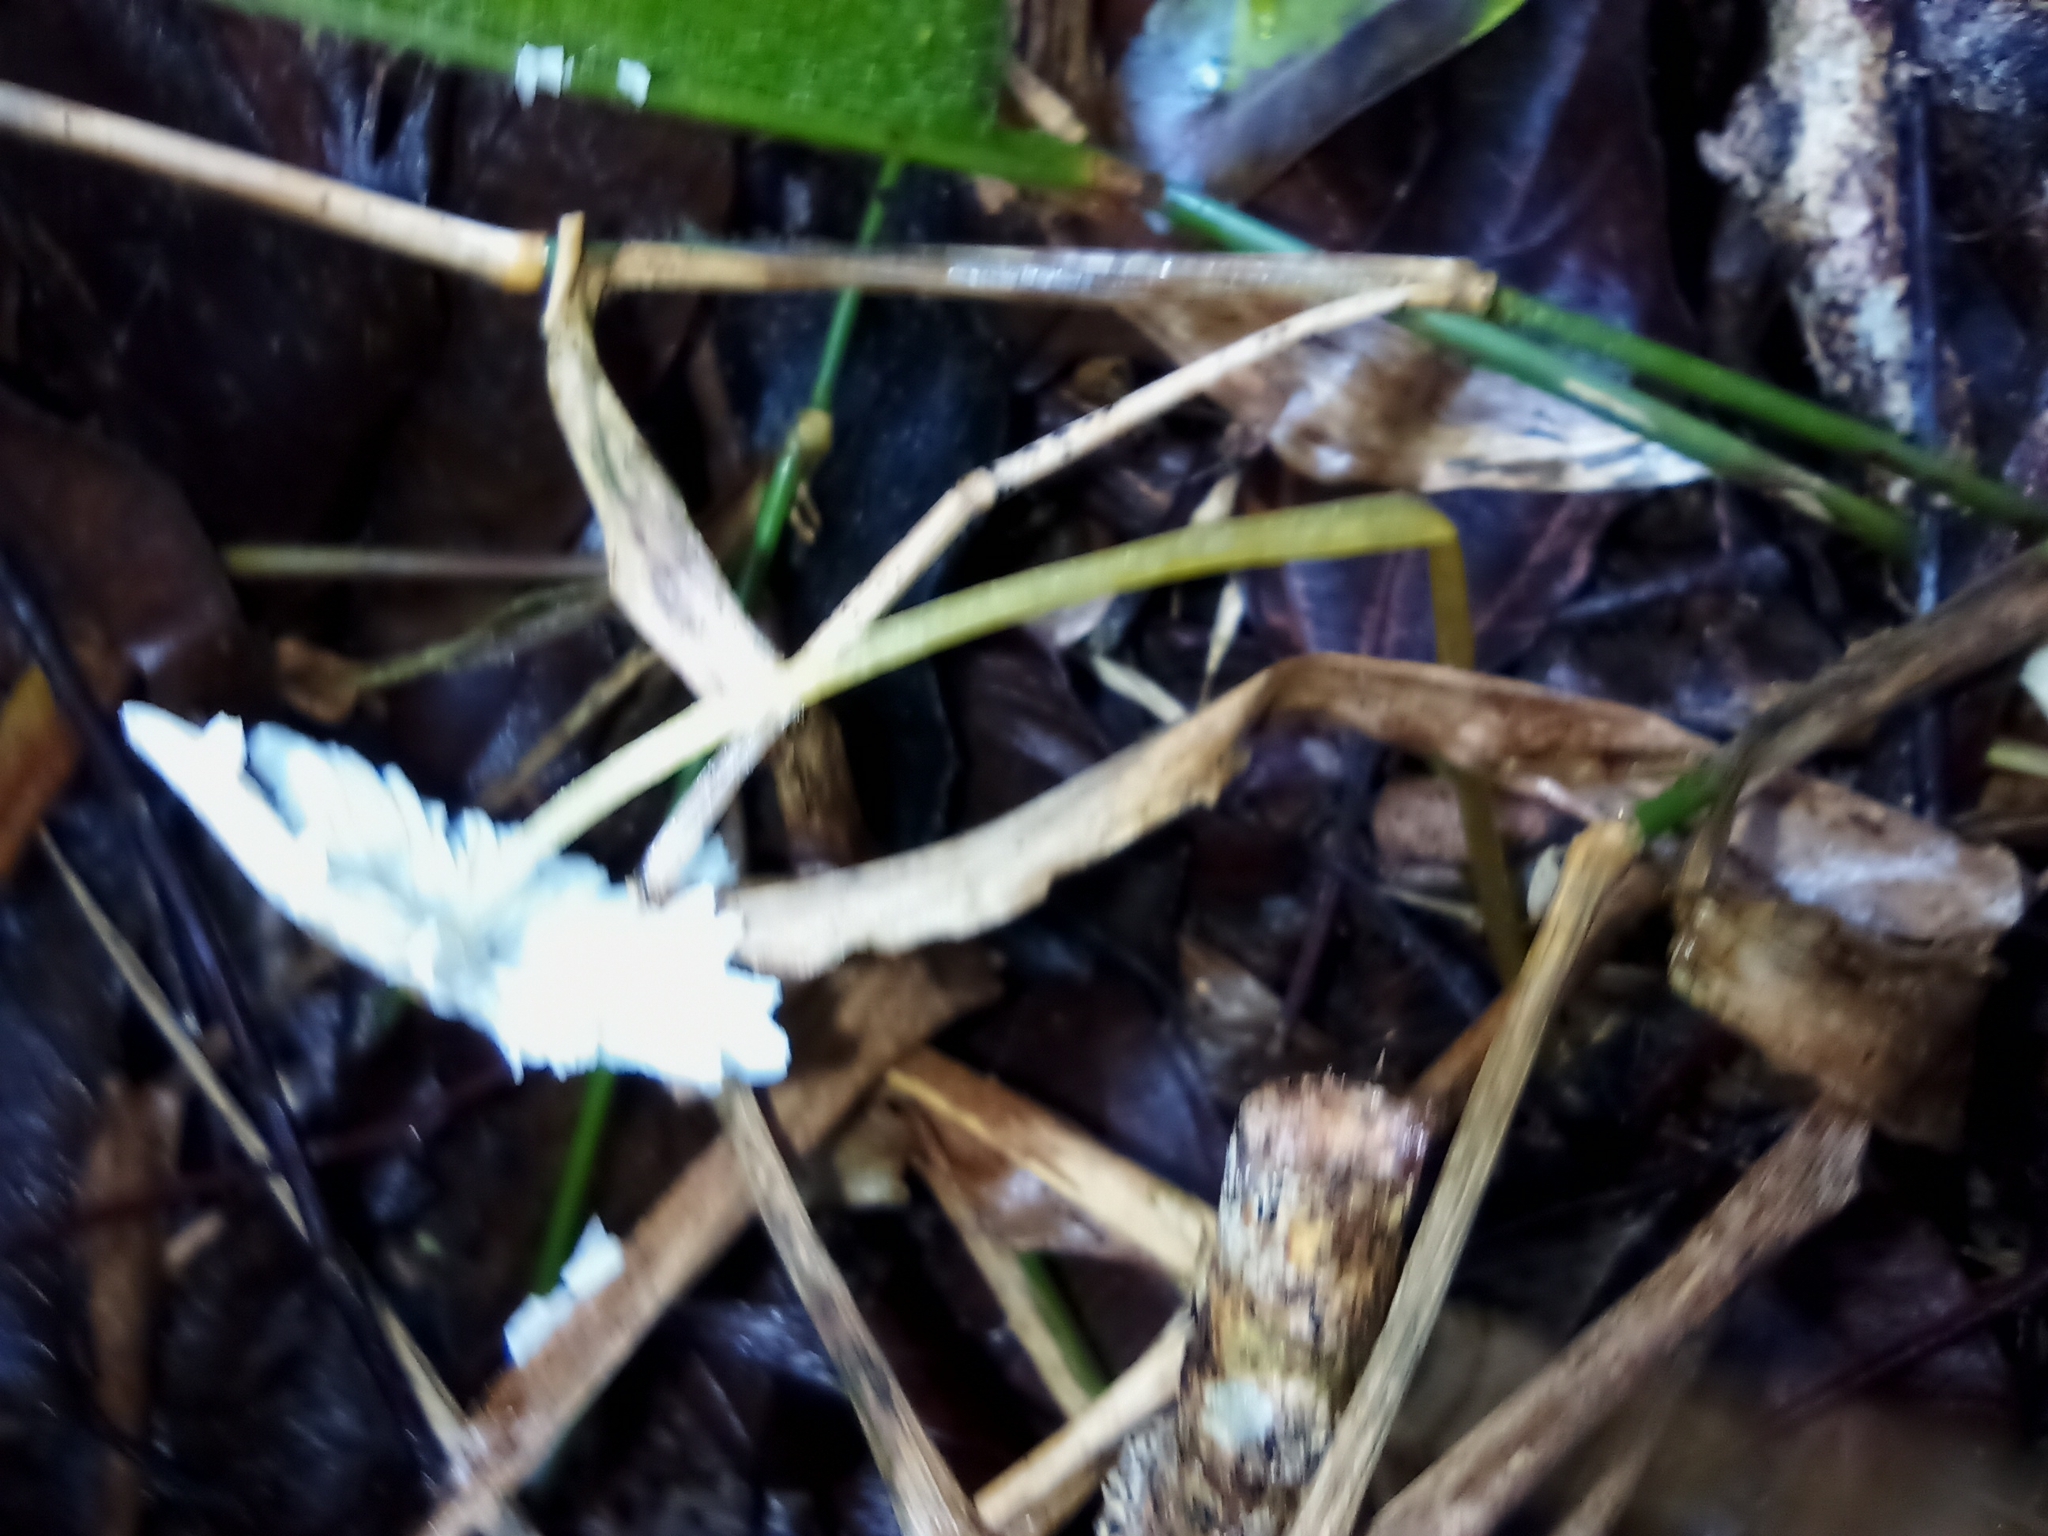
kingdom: Fungi
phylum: Basidiomycota
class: Agaricomycetes
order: Agaricales
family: Agaricaceae
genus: Leucocoprinus
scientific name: Leucocoprinus fragilissimus
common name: Fragile dapperling
